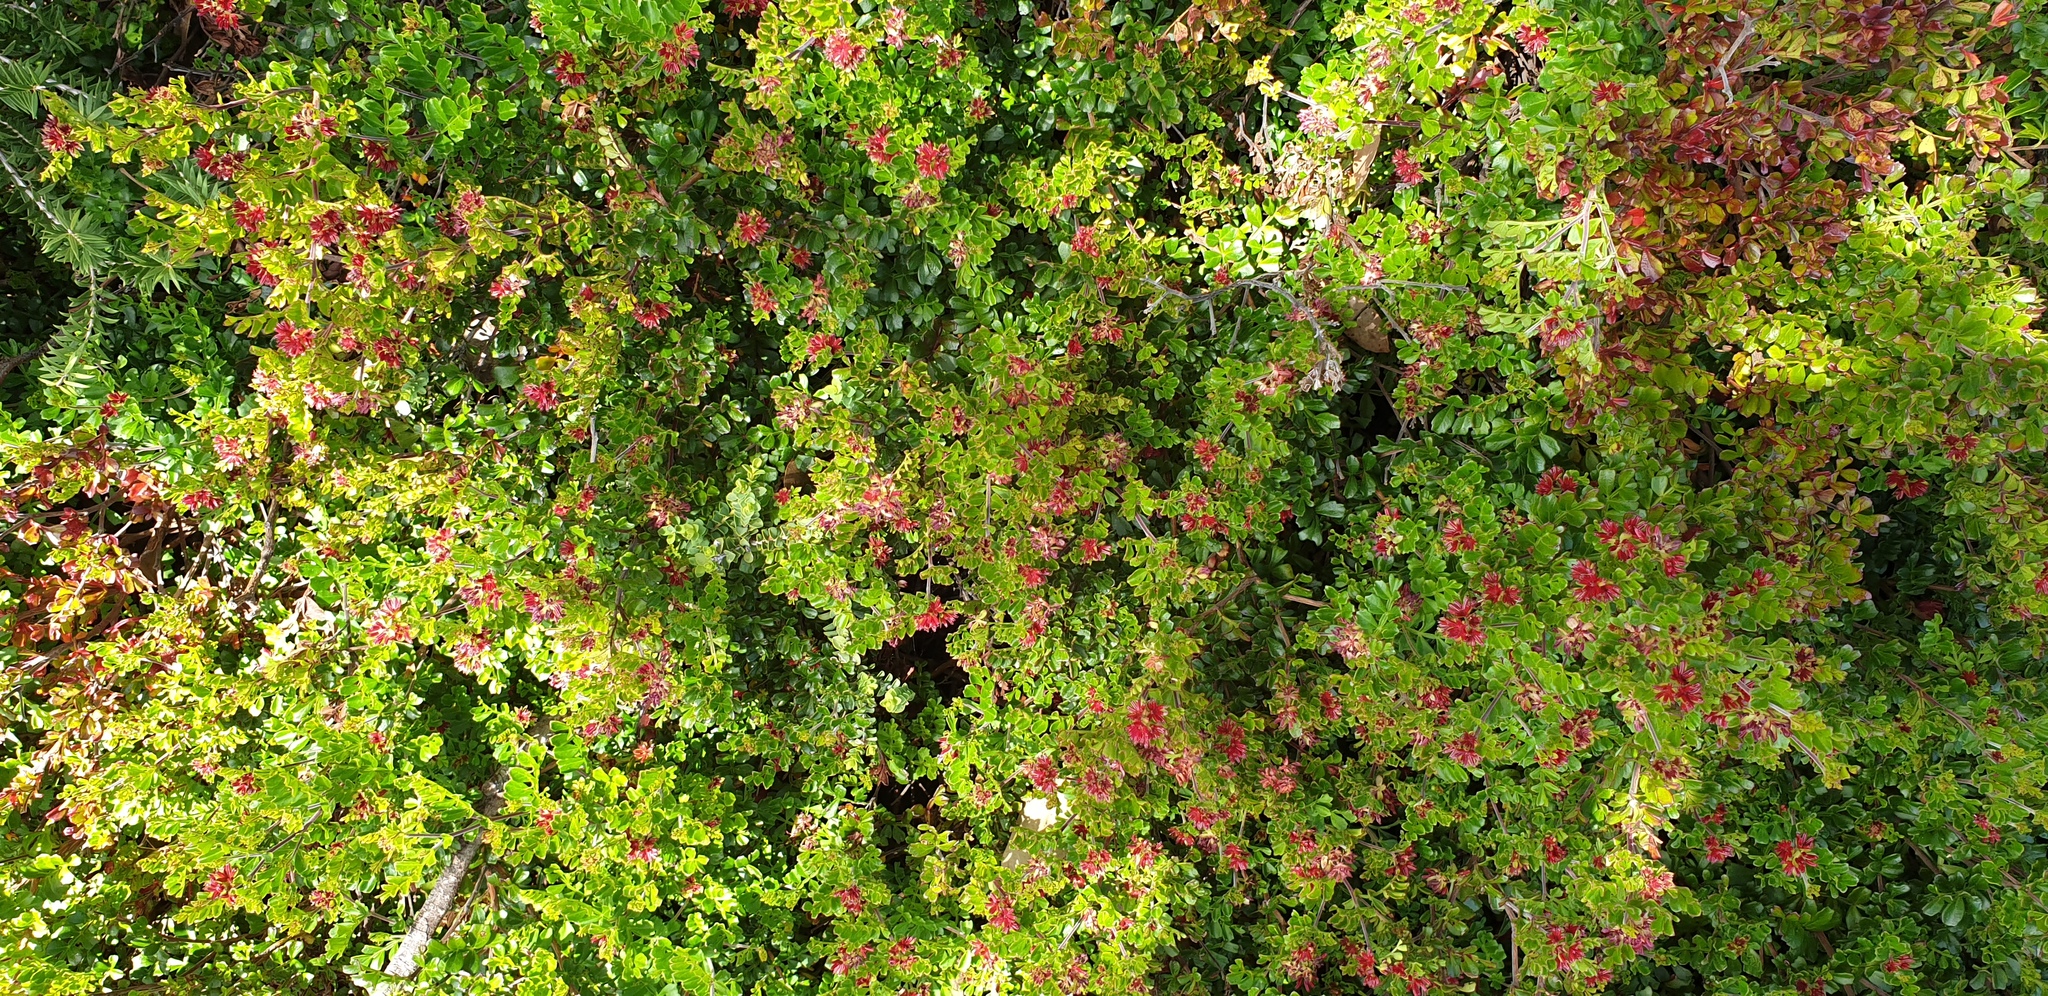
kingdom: Plantae
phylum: Tracheophyta
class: Magnoliopsida
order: Sapindales
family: Sapindaceae
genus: Dodonaea
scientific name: Dodonaea humilis
